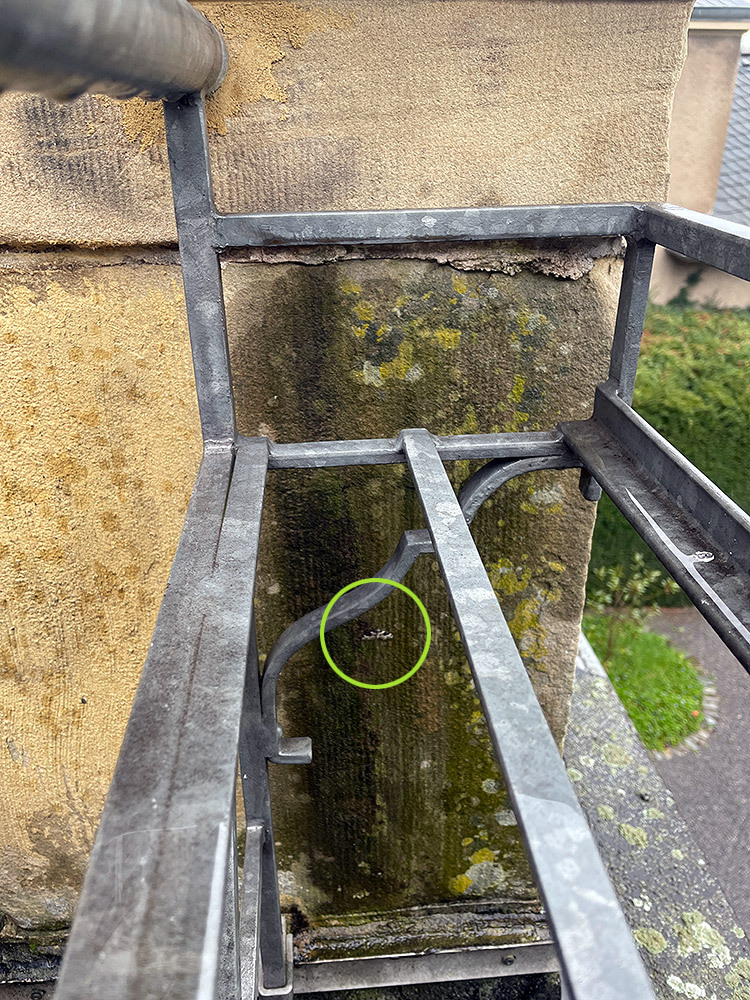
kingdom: Animalia
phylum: Arthropoda
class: Insecta
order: Lepidoptera
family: Geometridae
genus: Xanthorhoe
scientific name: Xanthorhoe fluctuata
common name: Garden carpet
